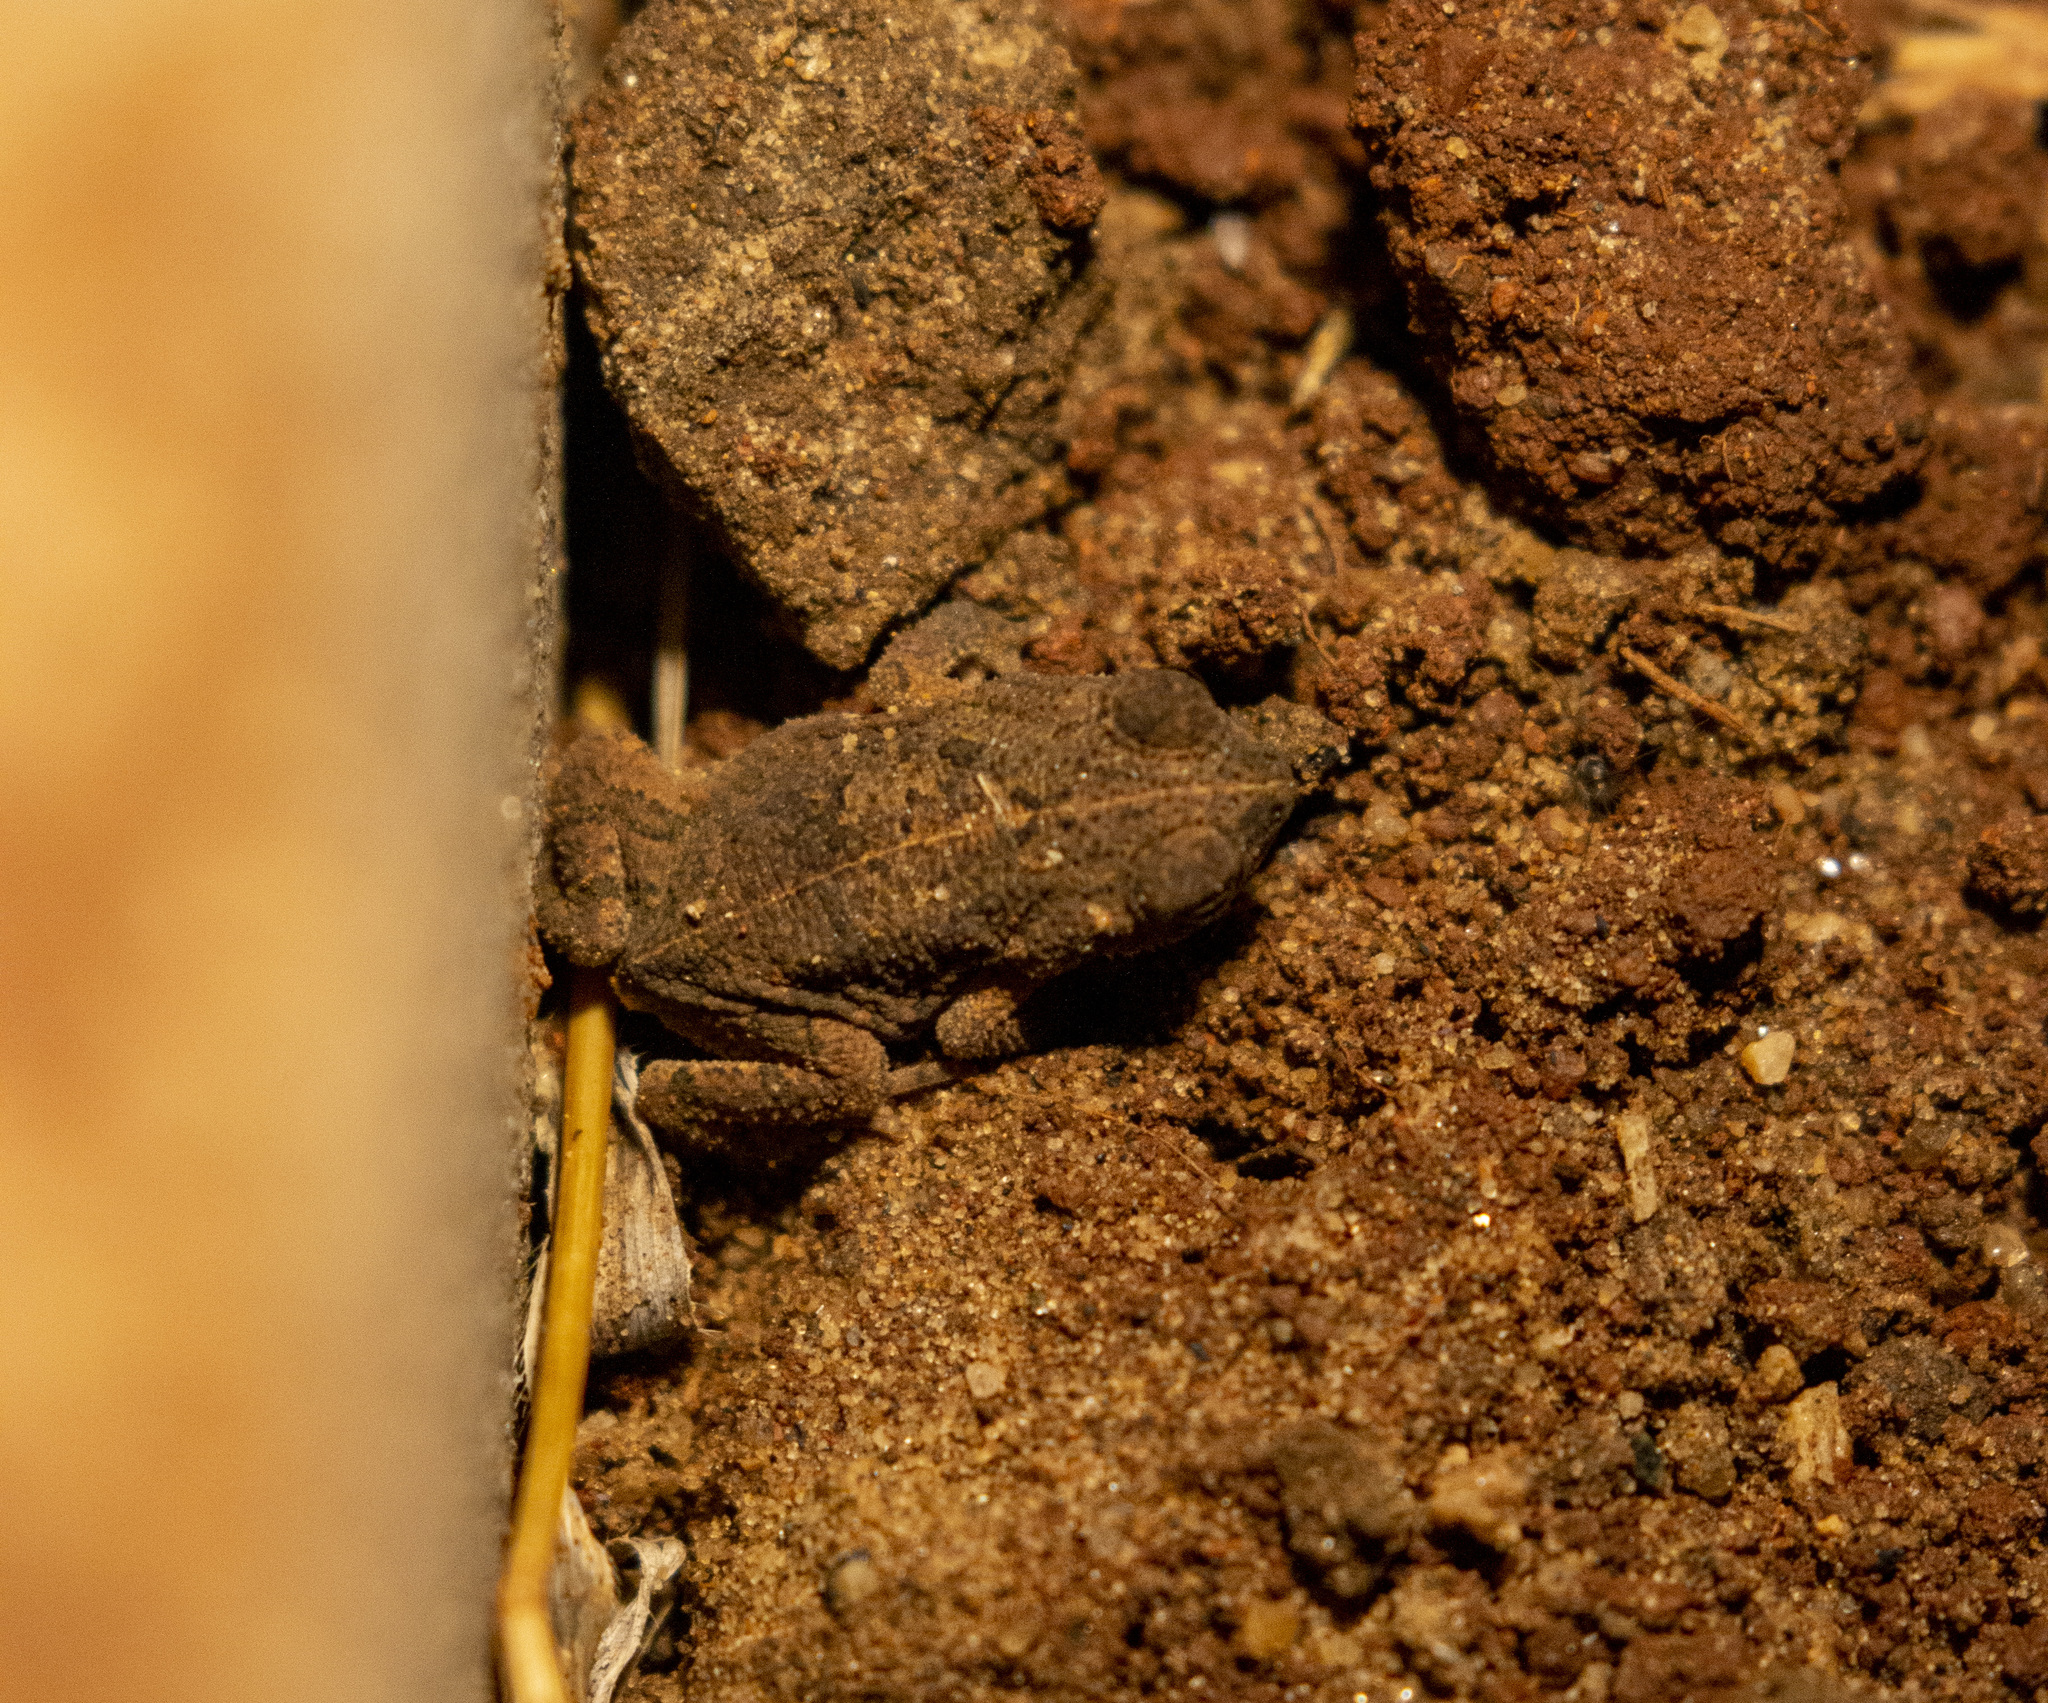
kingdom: Animalia
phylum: Chordata
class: Amphibia
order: Anura
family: Bufonidae
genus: Rhinella
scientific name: Rhinella granulosa
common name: Common lesser toad
